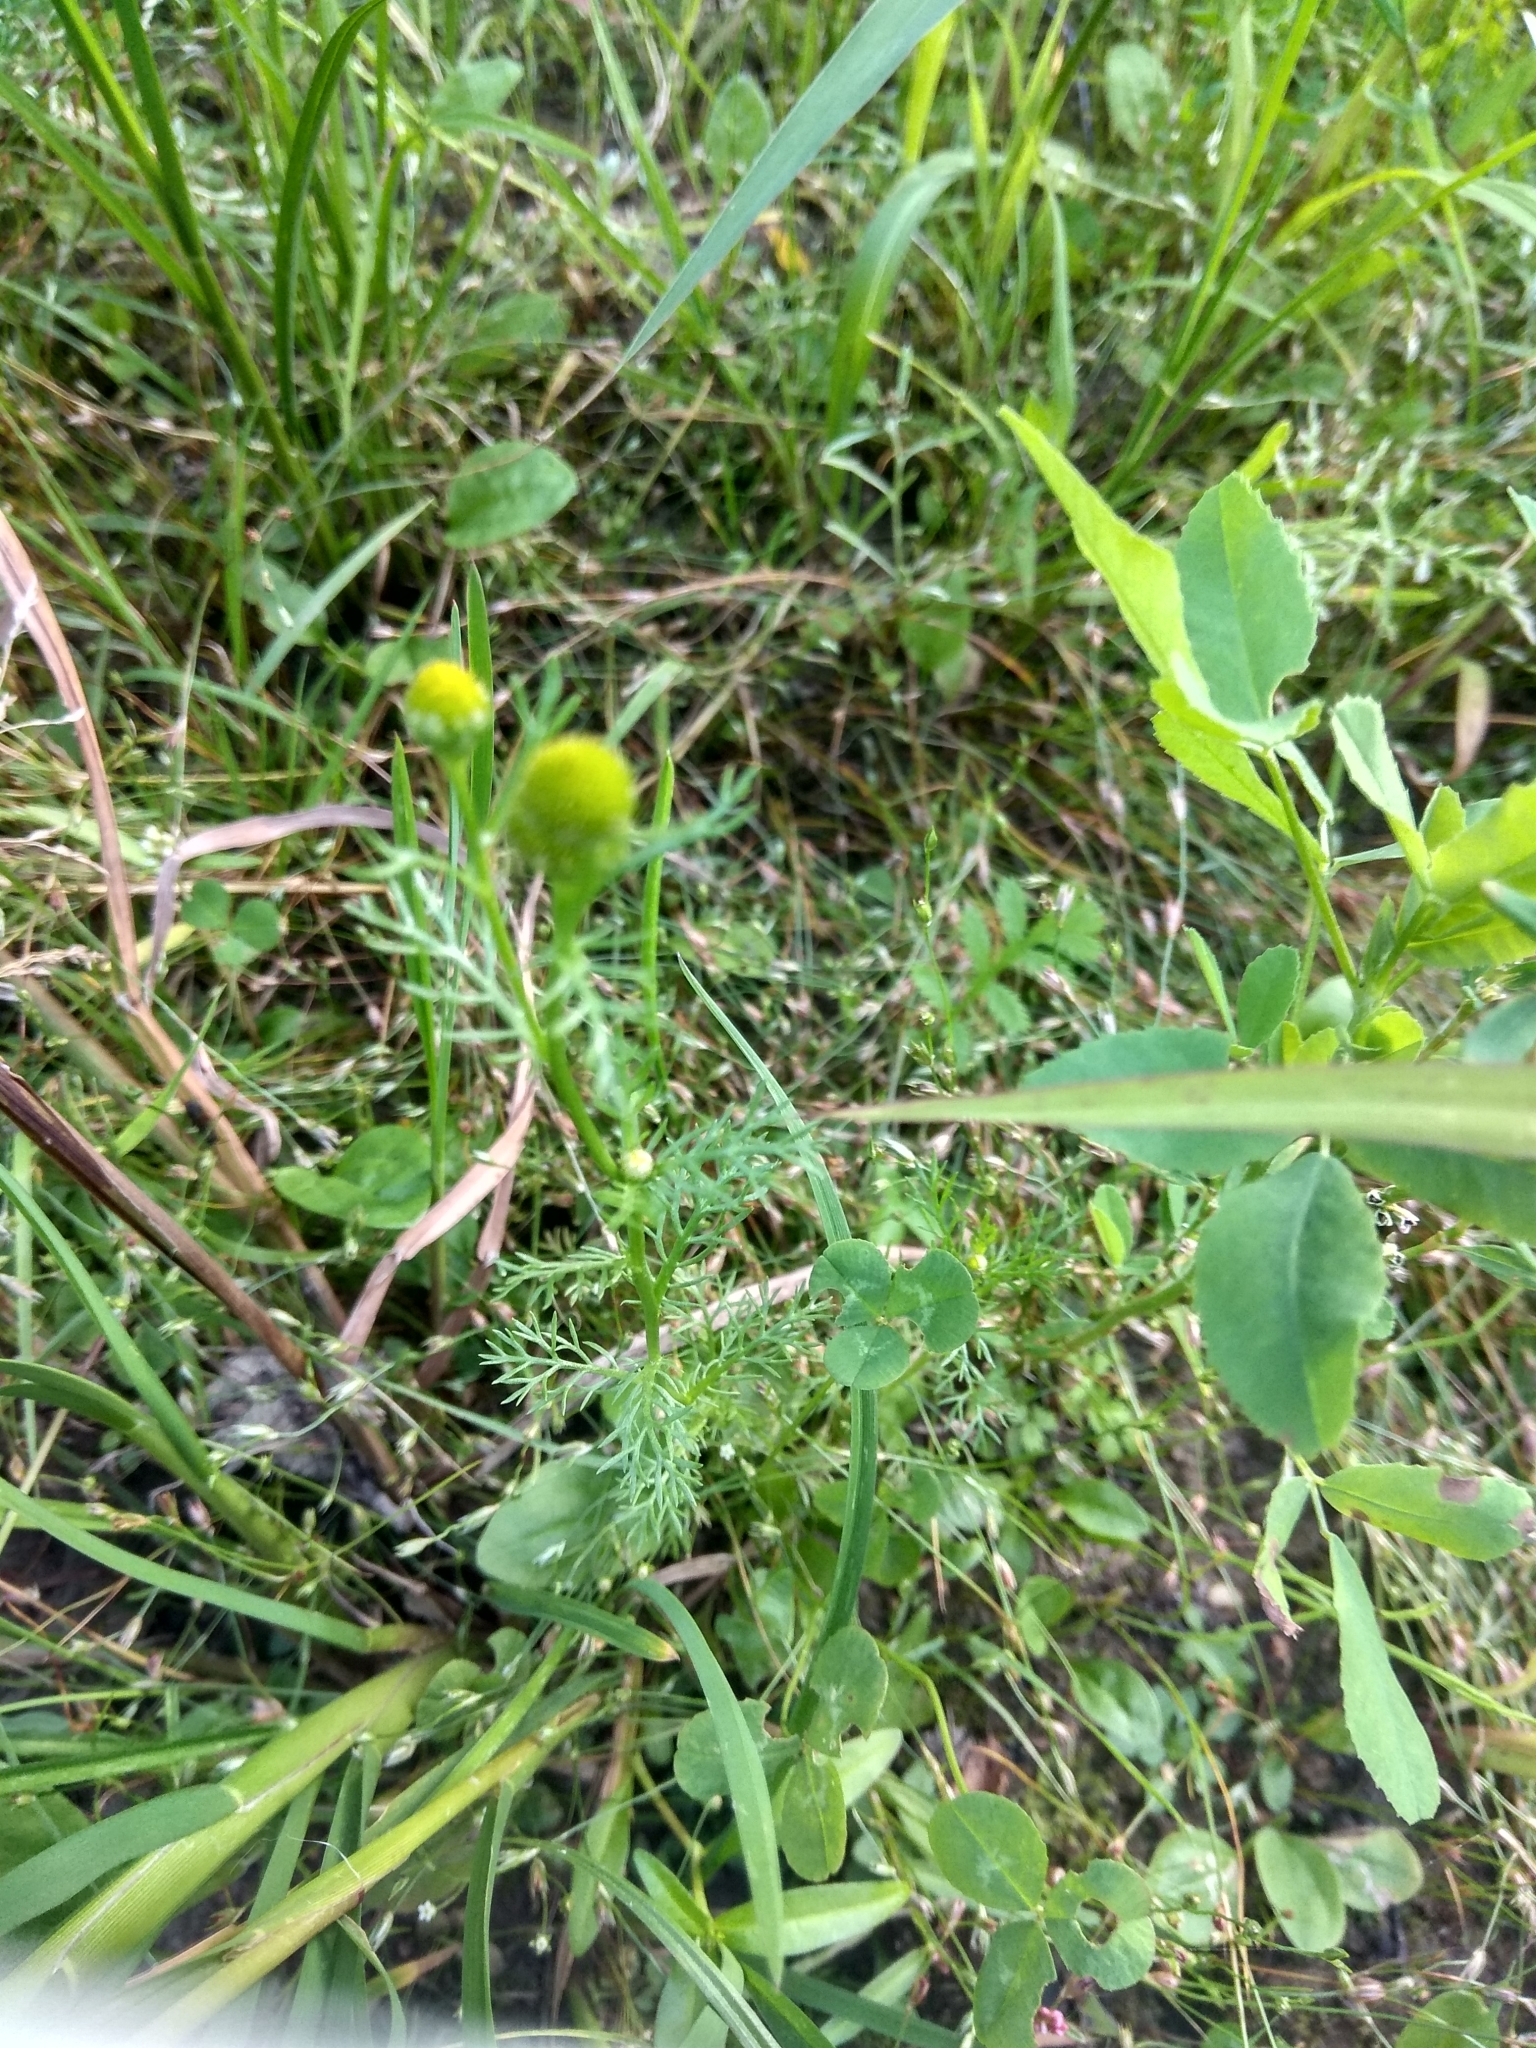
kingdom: Plantae
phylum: Tracheophyta
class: Magnoliopsida
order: Asterales
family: Asteraceae
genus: Matricaria
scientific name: Matricaria discoidea
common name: Disc mayweed
